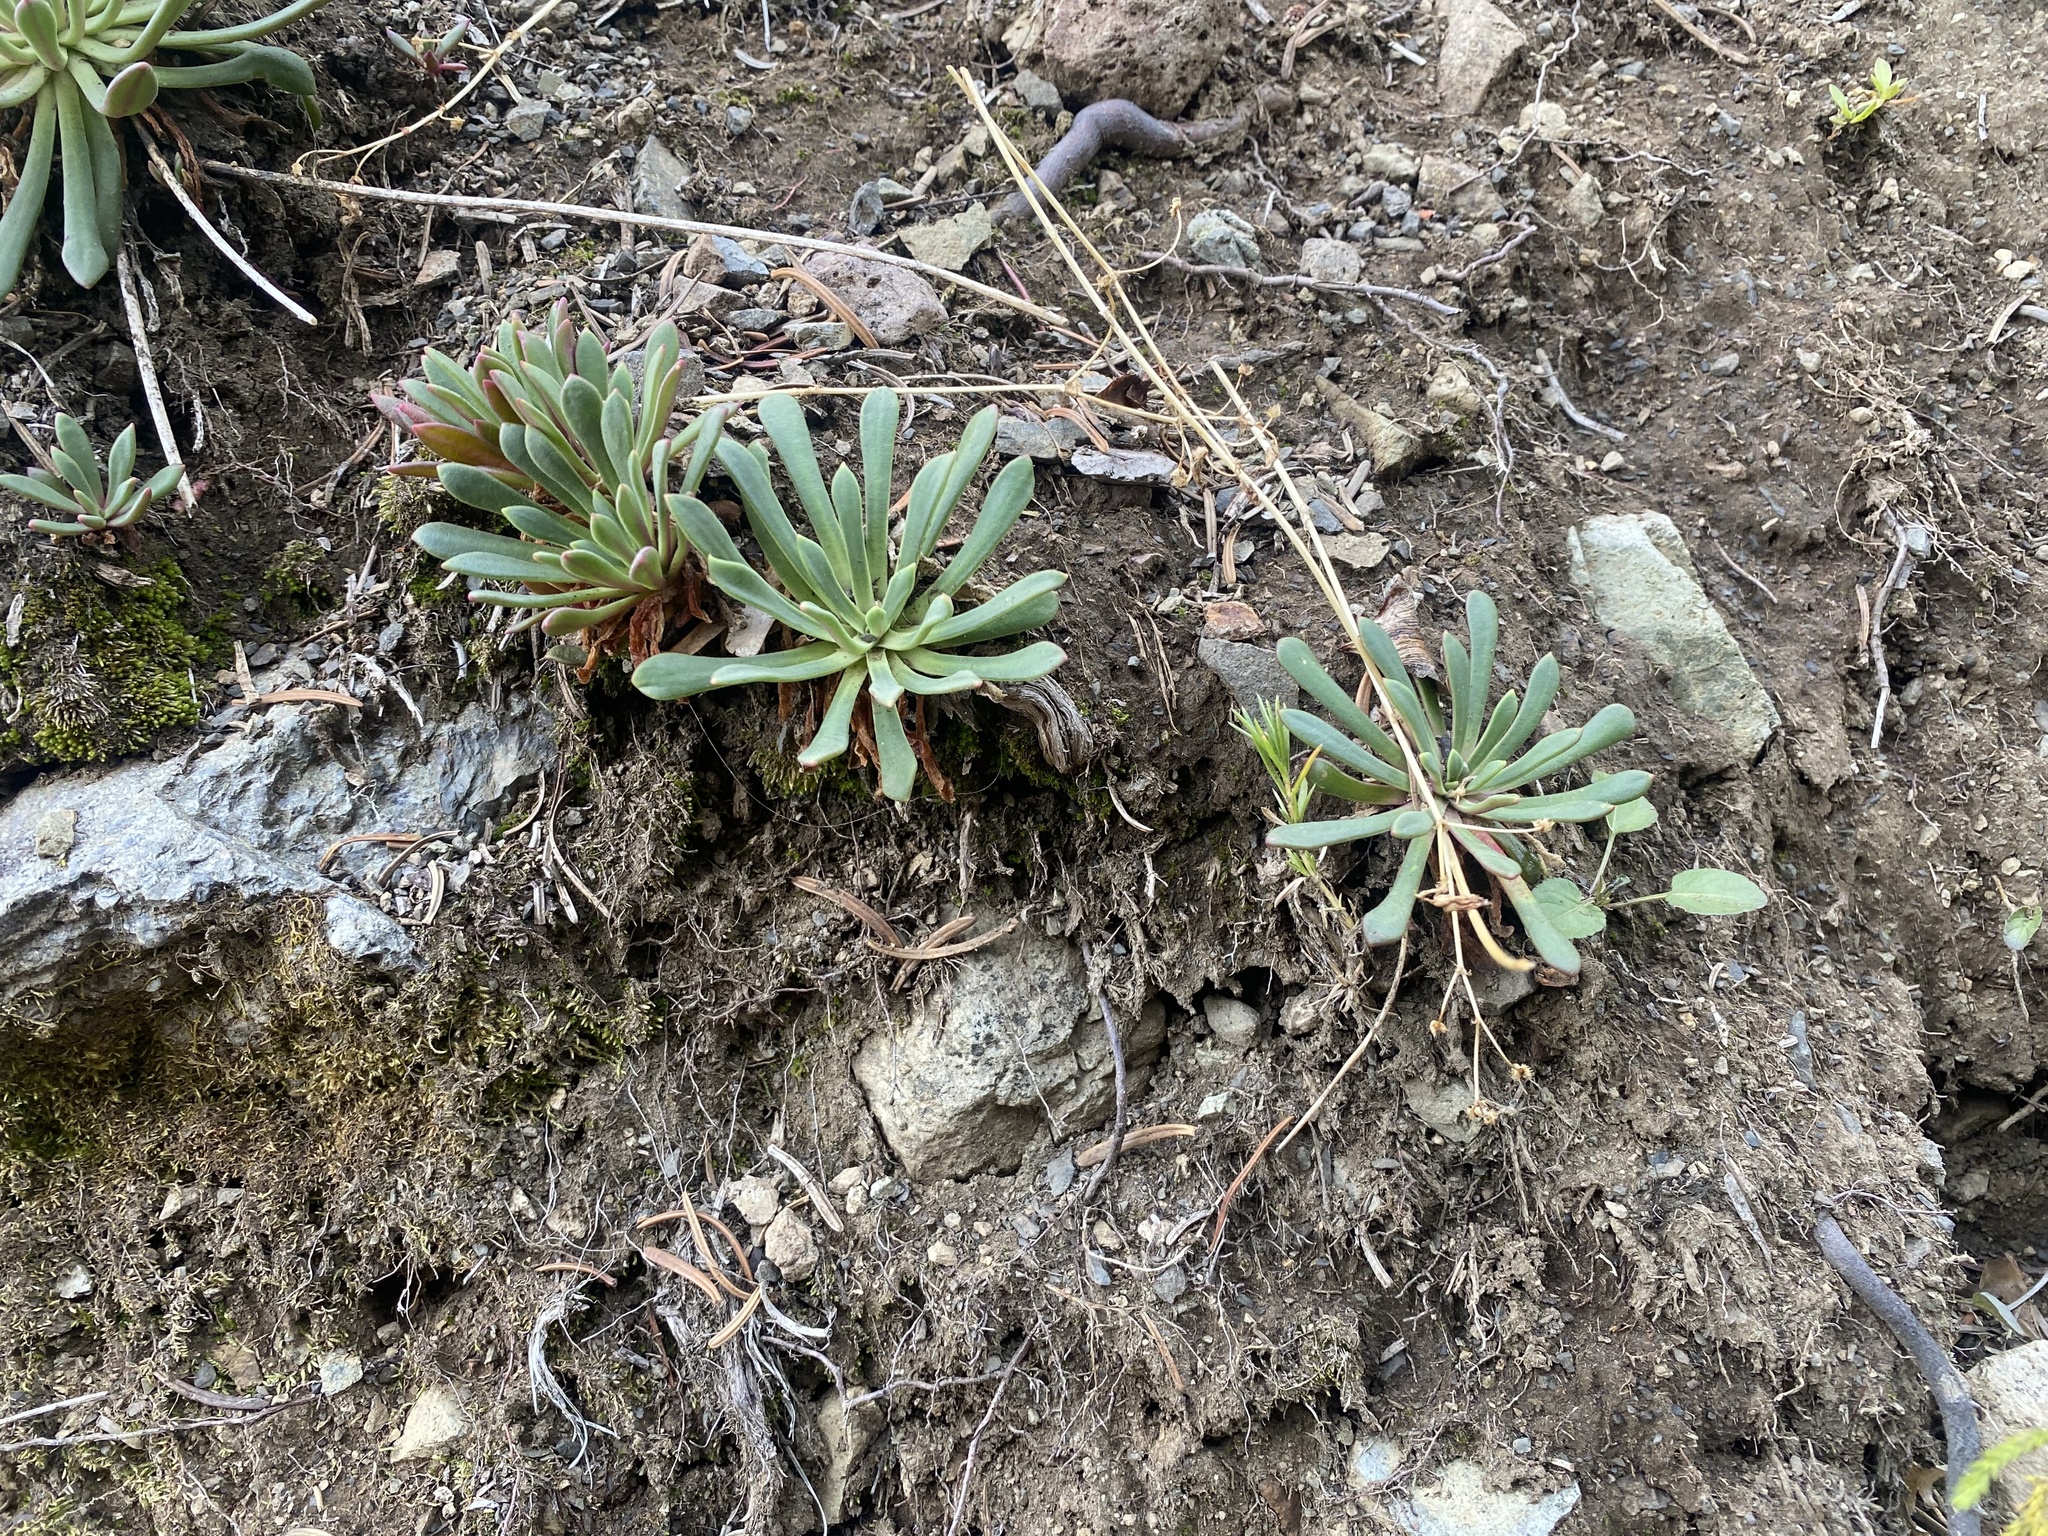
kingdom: Plantae
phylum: Tracheophyta
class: Magnoliopsida
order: Caryophyllales
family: Montiaceae
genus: Lewisia
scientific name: Lewisia columbiana
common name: Columbia lewisia
